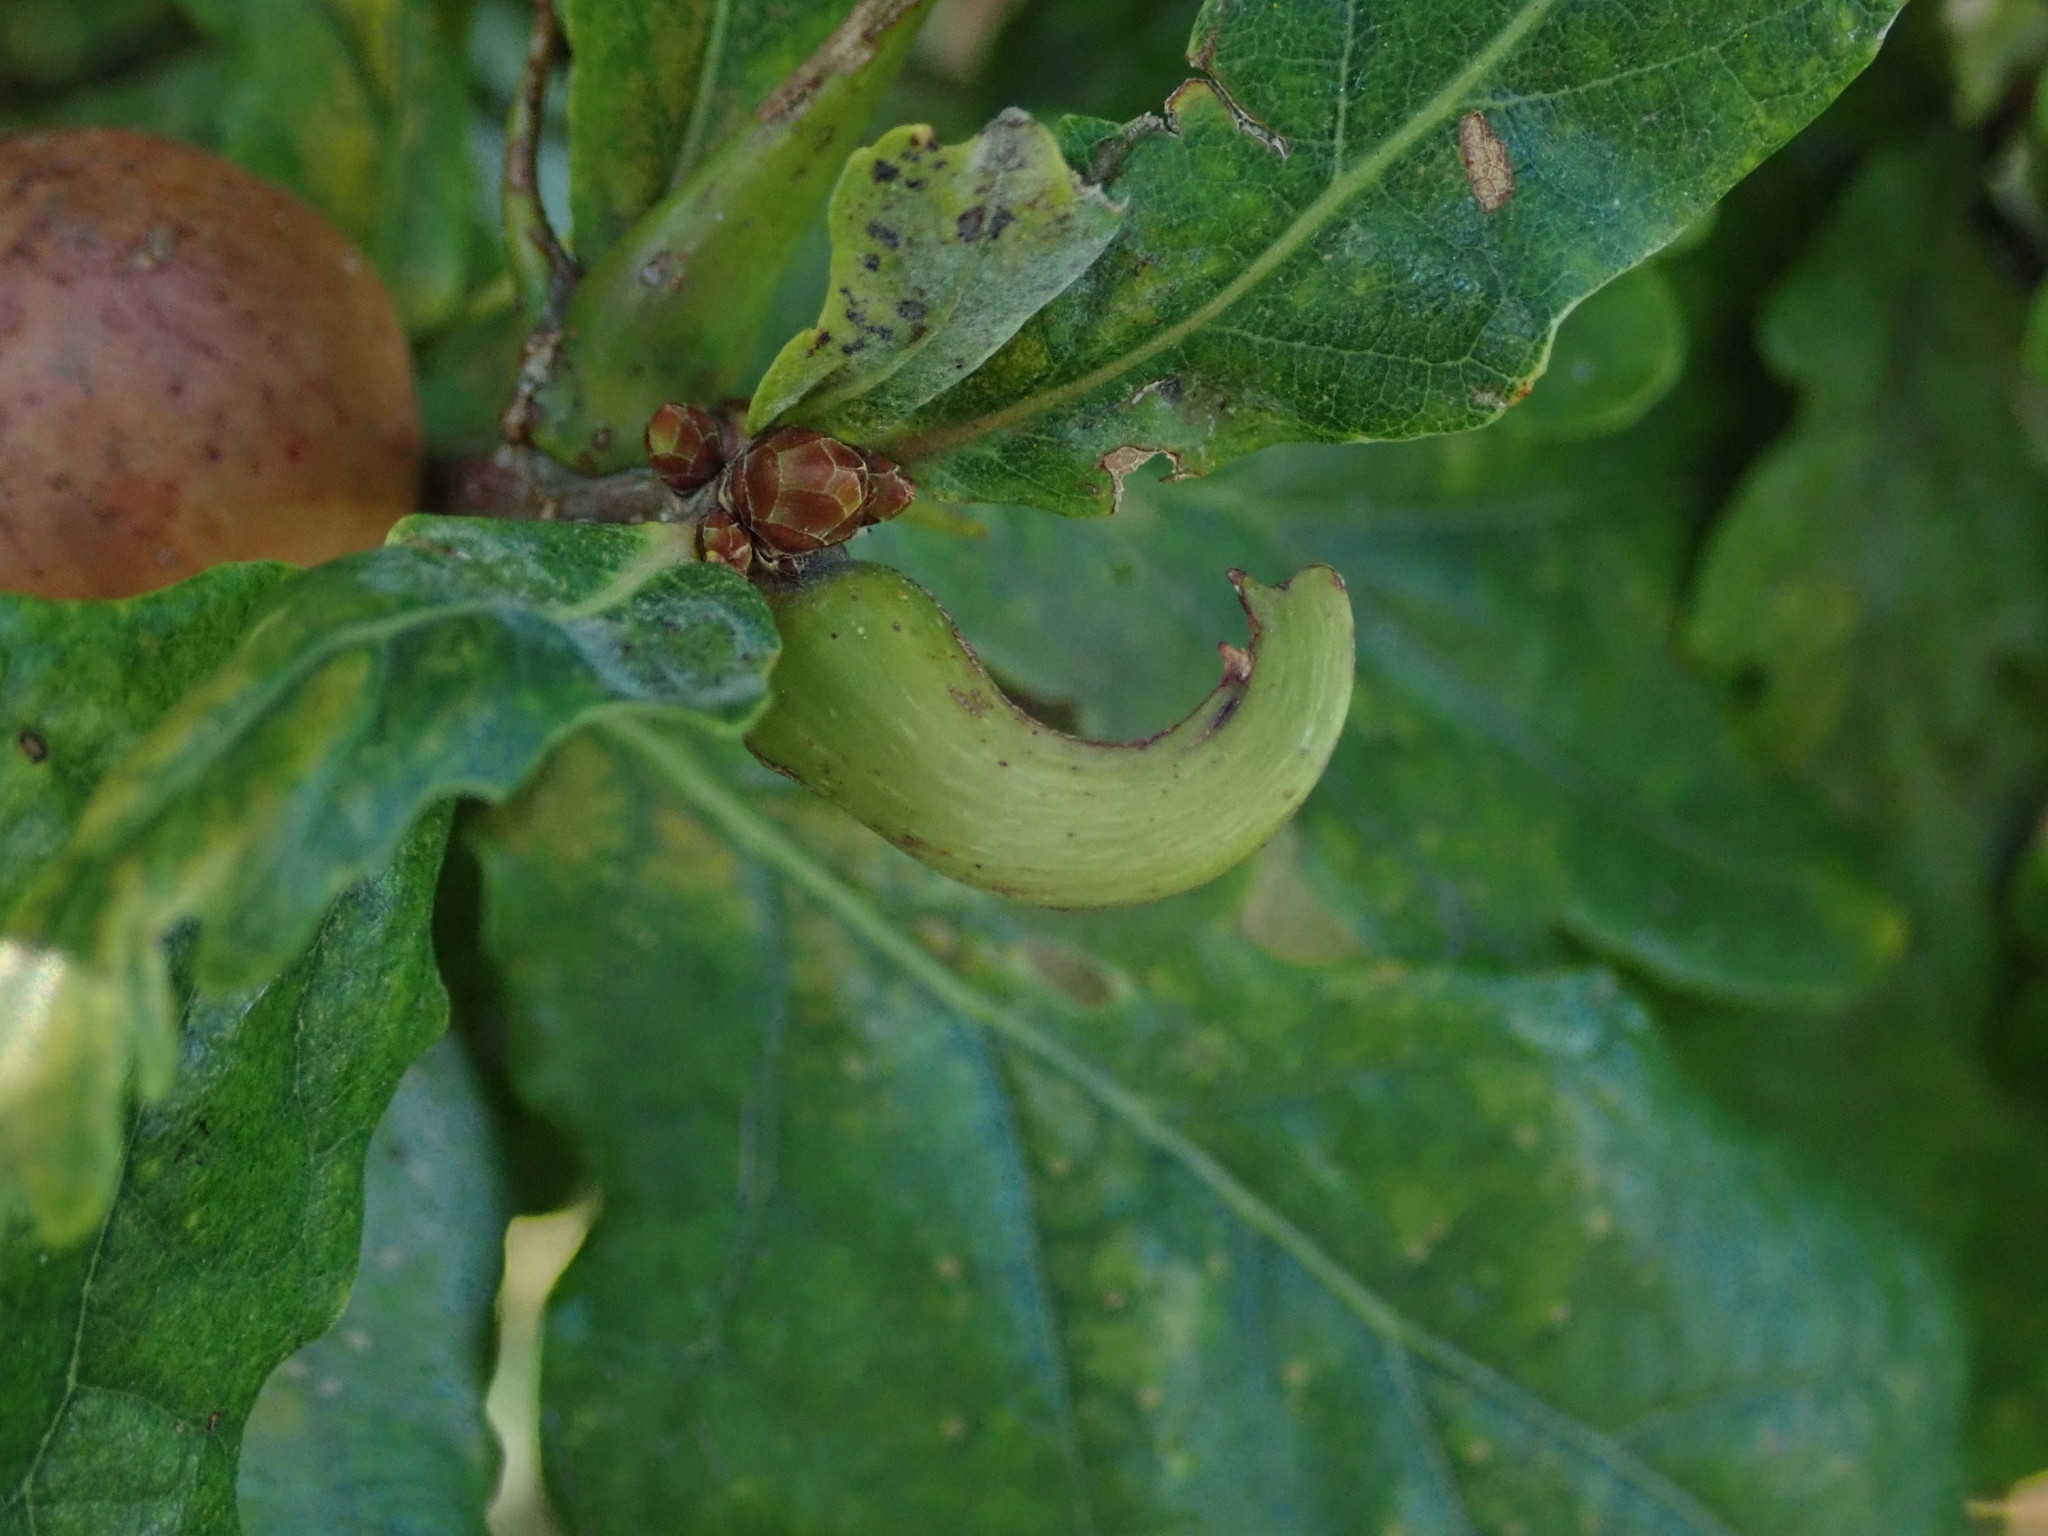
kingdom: Animalia
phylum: Arthropoda
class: Insecta
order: Hymenoptera
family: Cynipidae
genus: Andricus
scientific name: Andricus aries
